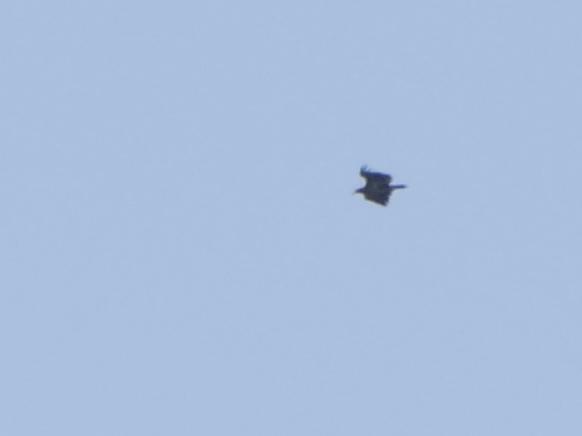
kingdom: Animalia
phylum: Chordata
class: Aves
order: Accipitriformes
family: Accipitridae
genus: Haliaeetus
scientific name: Haliaeetus albicilla
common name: White-tailed eagle
